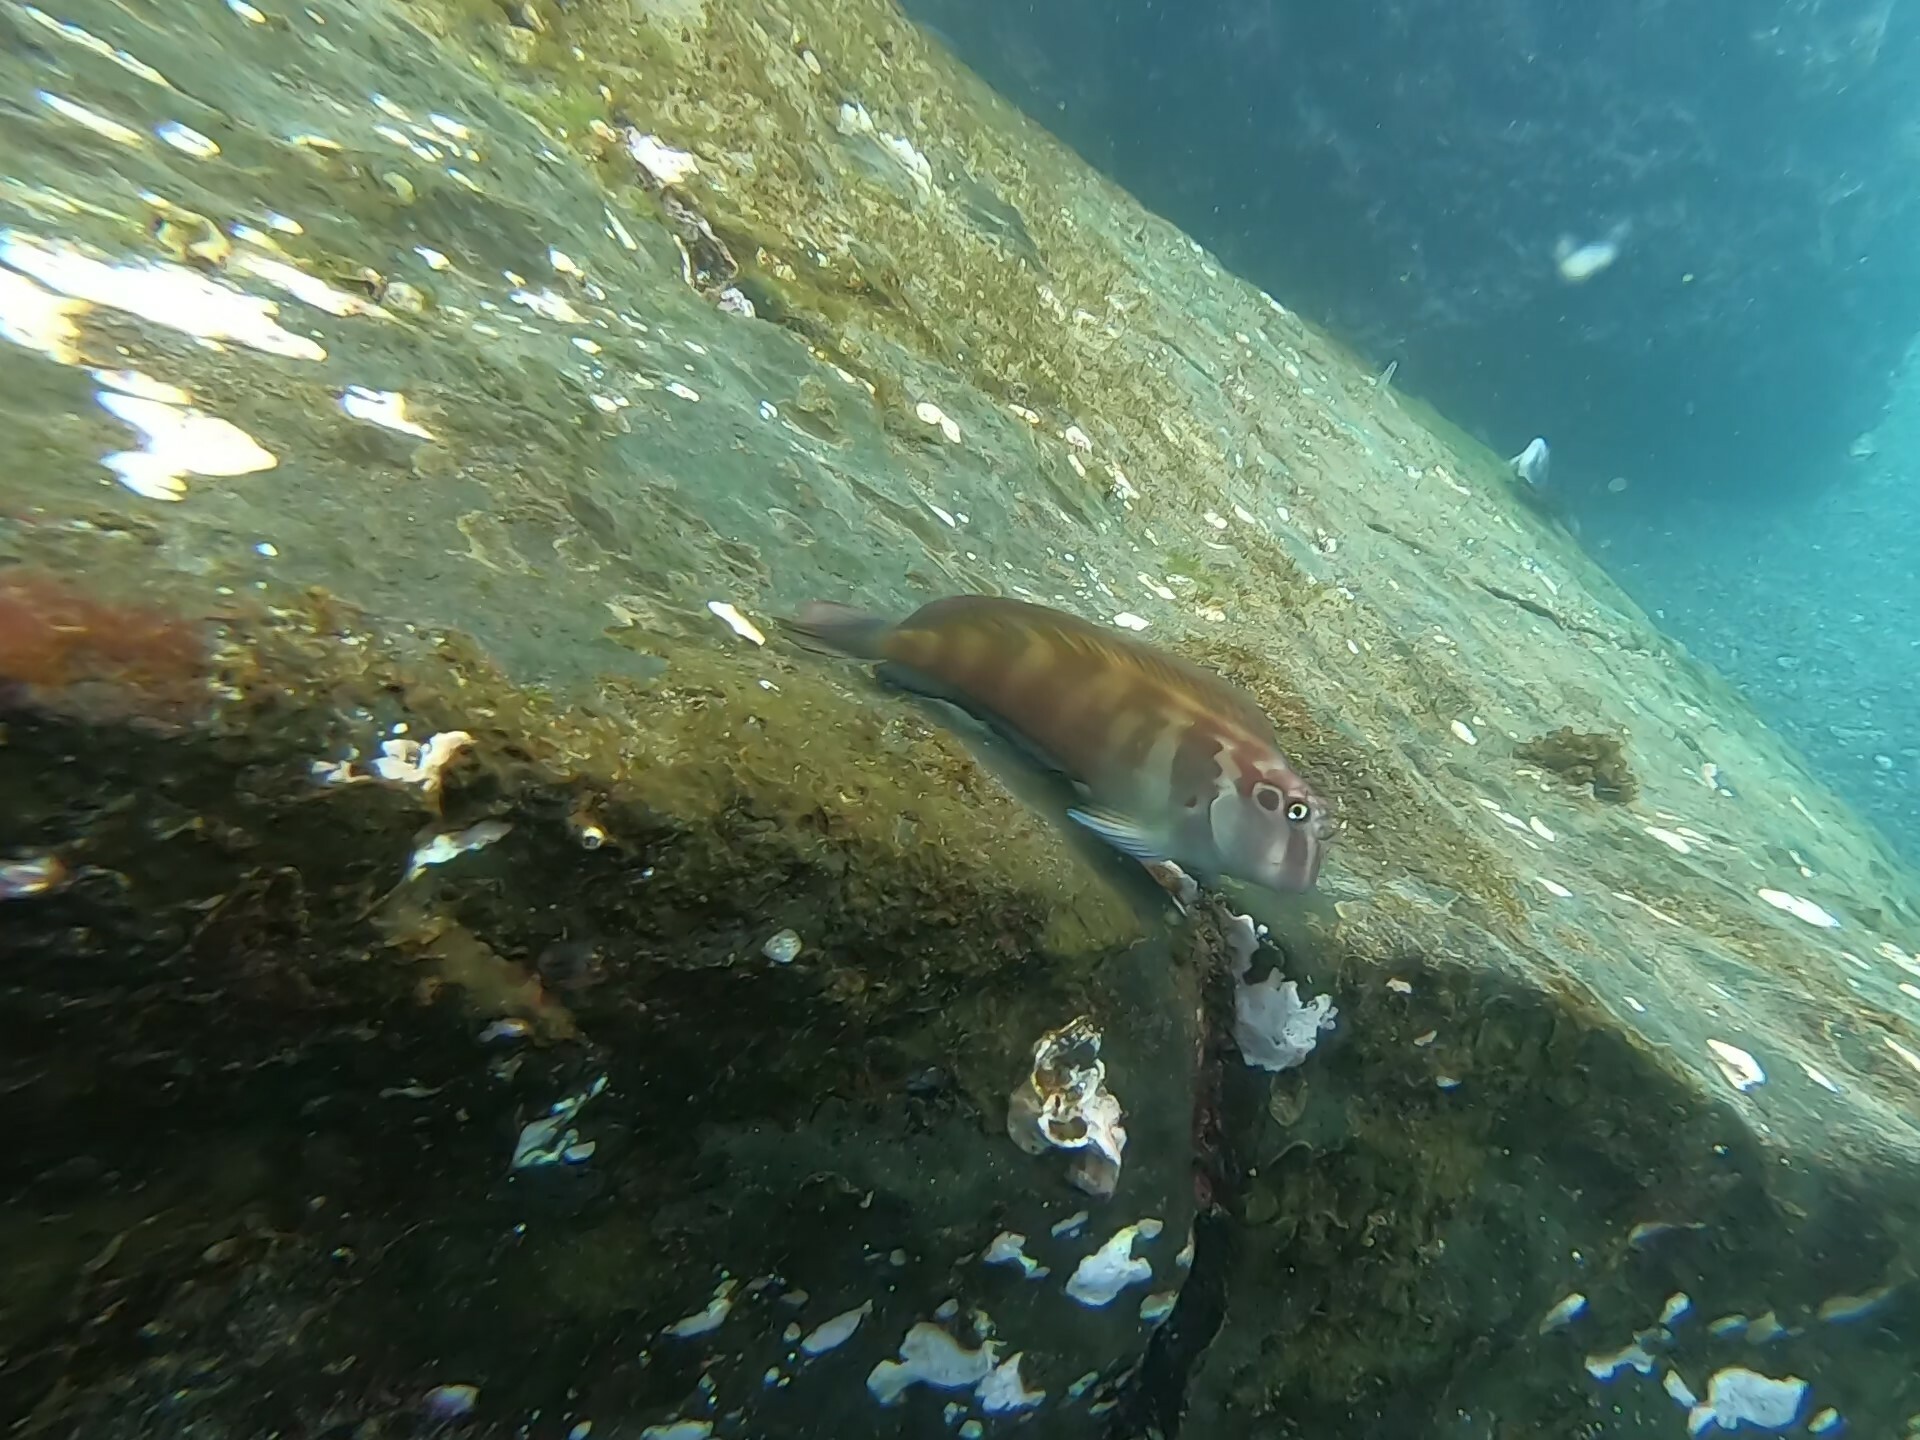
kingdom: Animalia
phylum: Chordata
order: Perciformes
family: Blenniidae
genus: Ophioblennius
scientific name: Ophioblennius steindachneri
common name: Panamic fanged blenny
